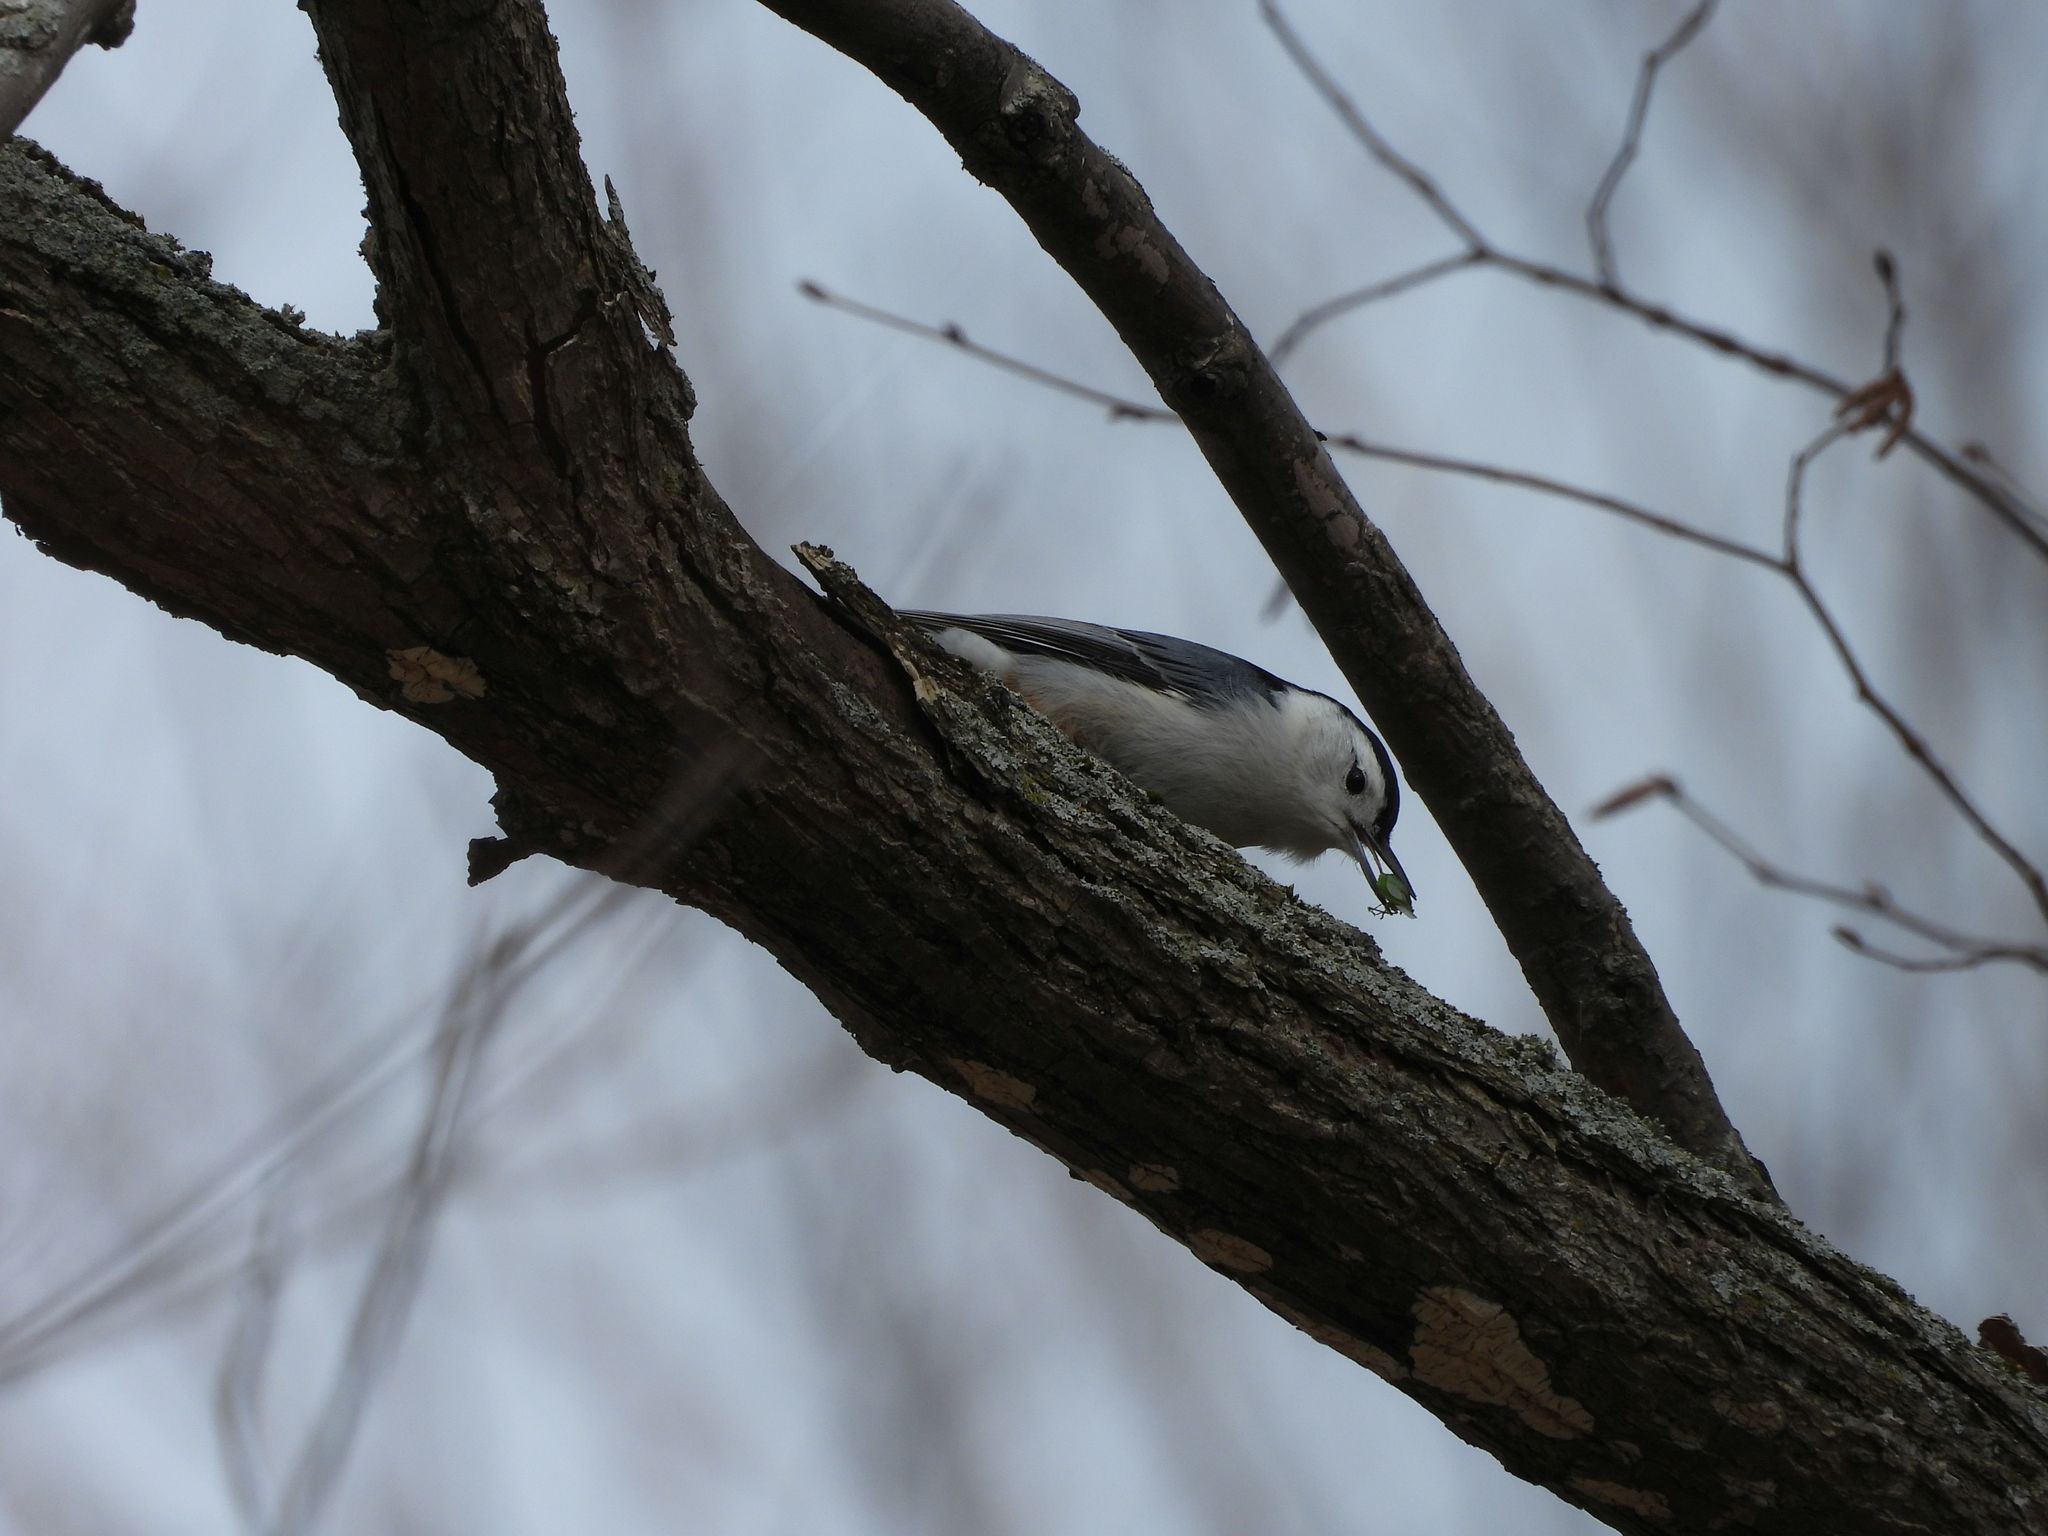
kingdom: Animalia
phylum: Chordata
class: Aves
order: Passeriformes
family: Sittidae
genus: Sitta
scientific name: Sitta carolinensis
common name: White-breasted nuthatch
